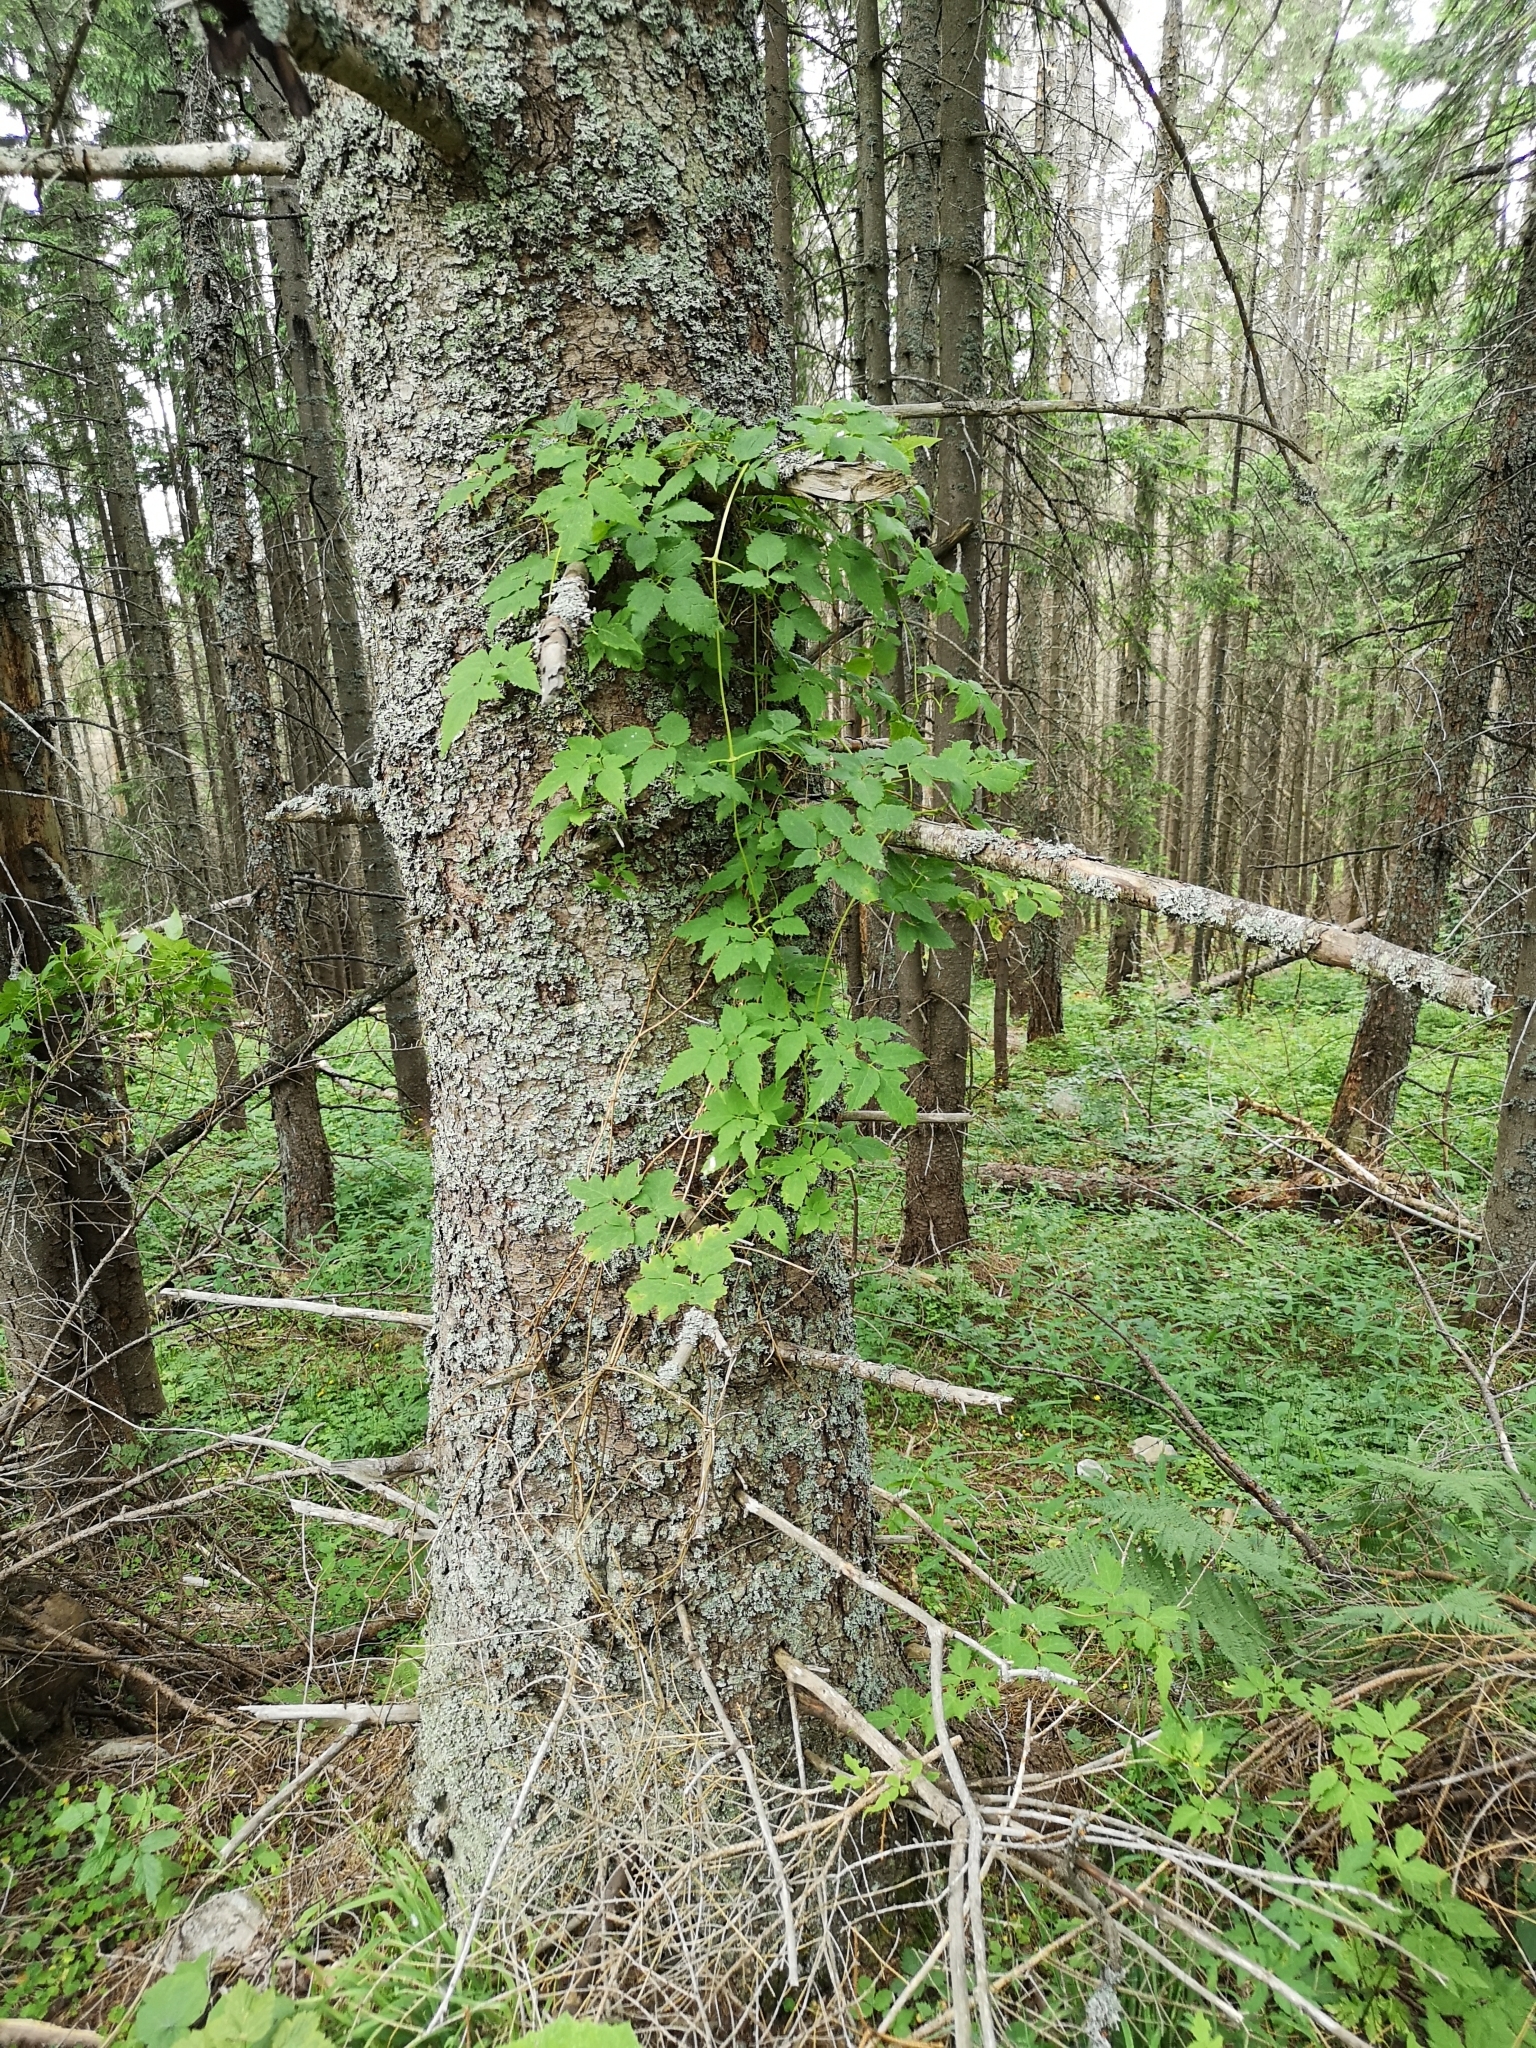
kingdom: Plantae
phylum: Tracheophyta
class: Magnoliopsida
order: Ranunculales
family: Ranunculaceae
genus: Clematis
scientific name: Clematis alpina
